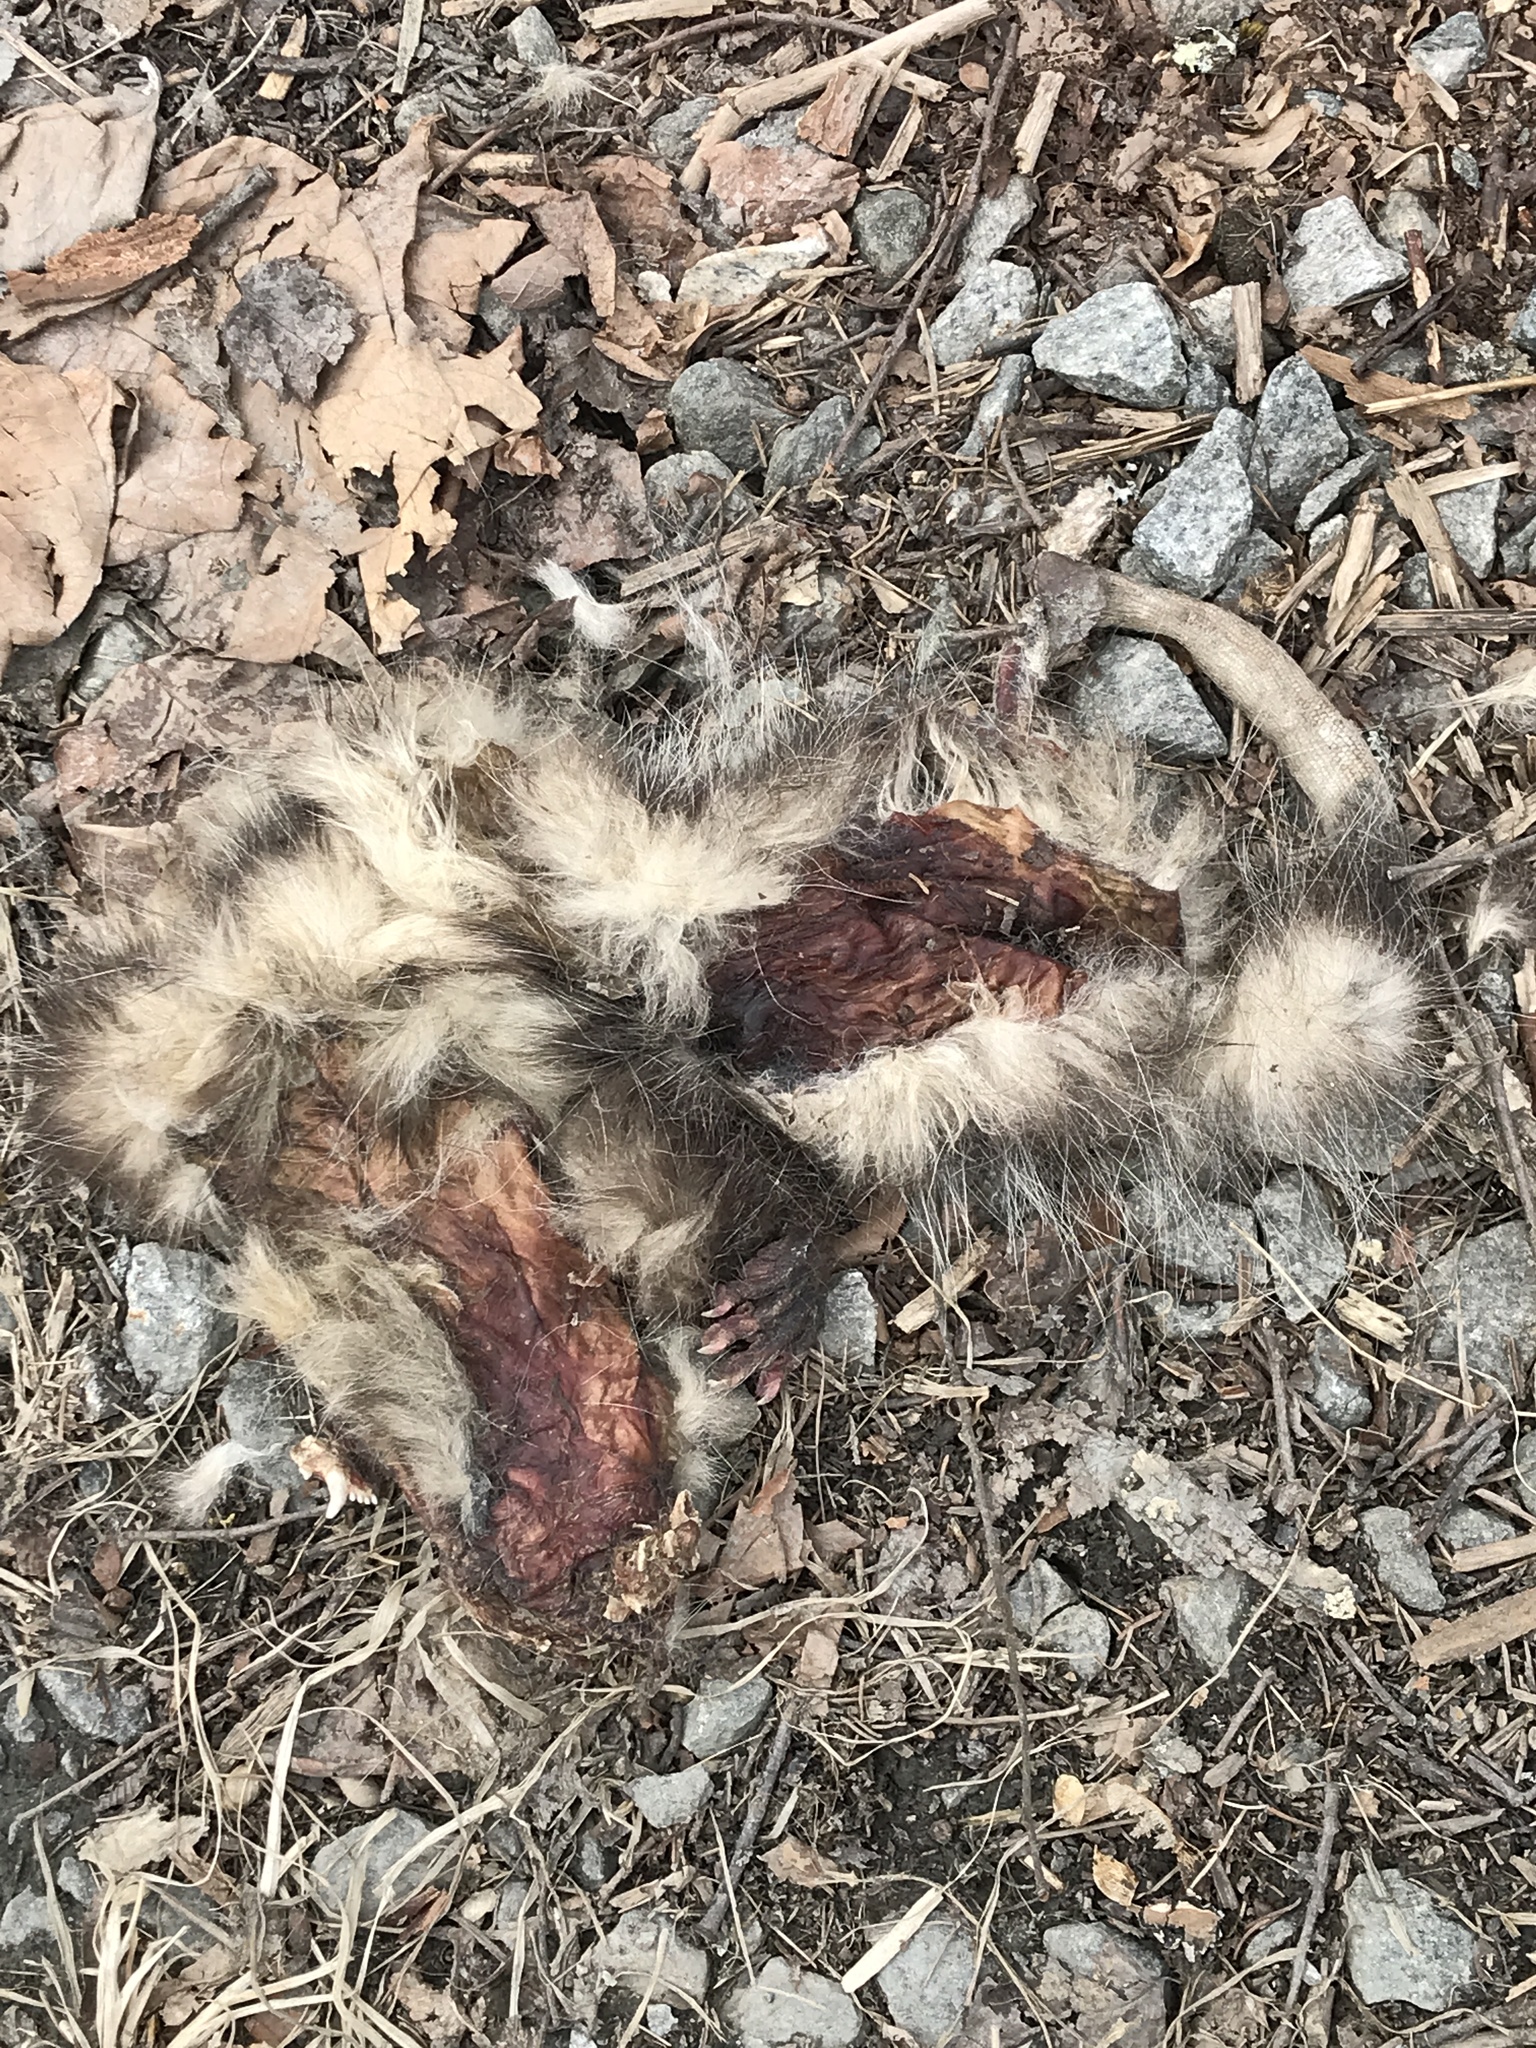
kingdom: Animalia
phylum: Chordata
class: Mammalia
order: Didelphimorphia
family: Didelphidae
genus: Didelphis
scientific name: Didelphis virginiana
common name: Virginia opossum
